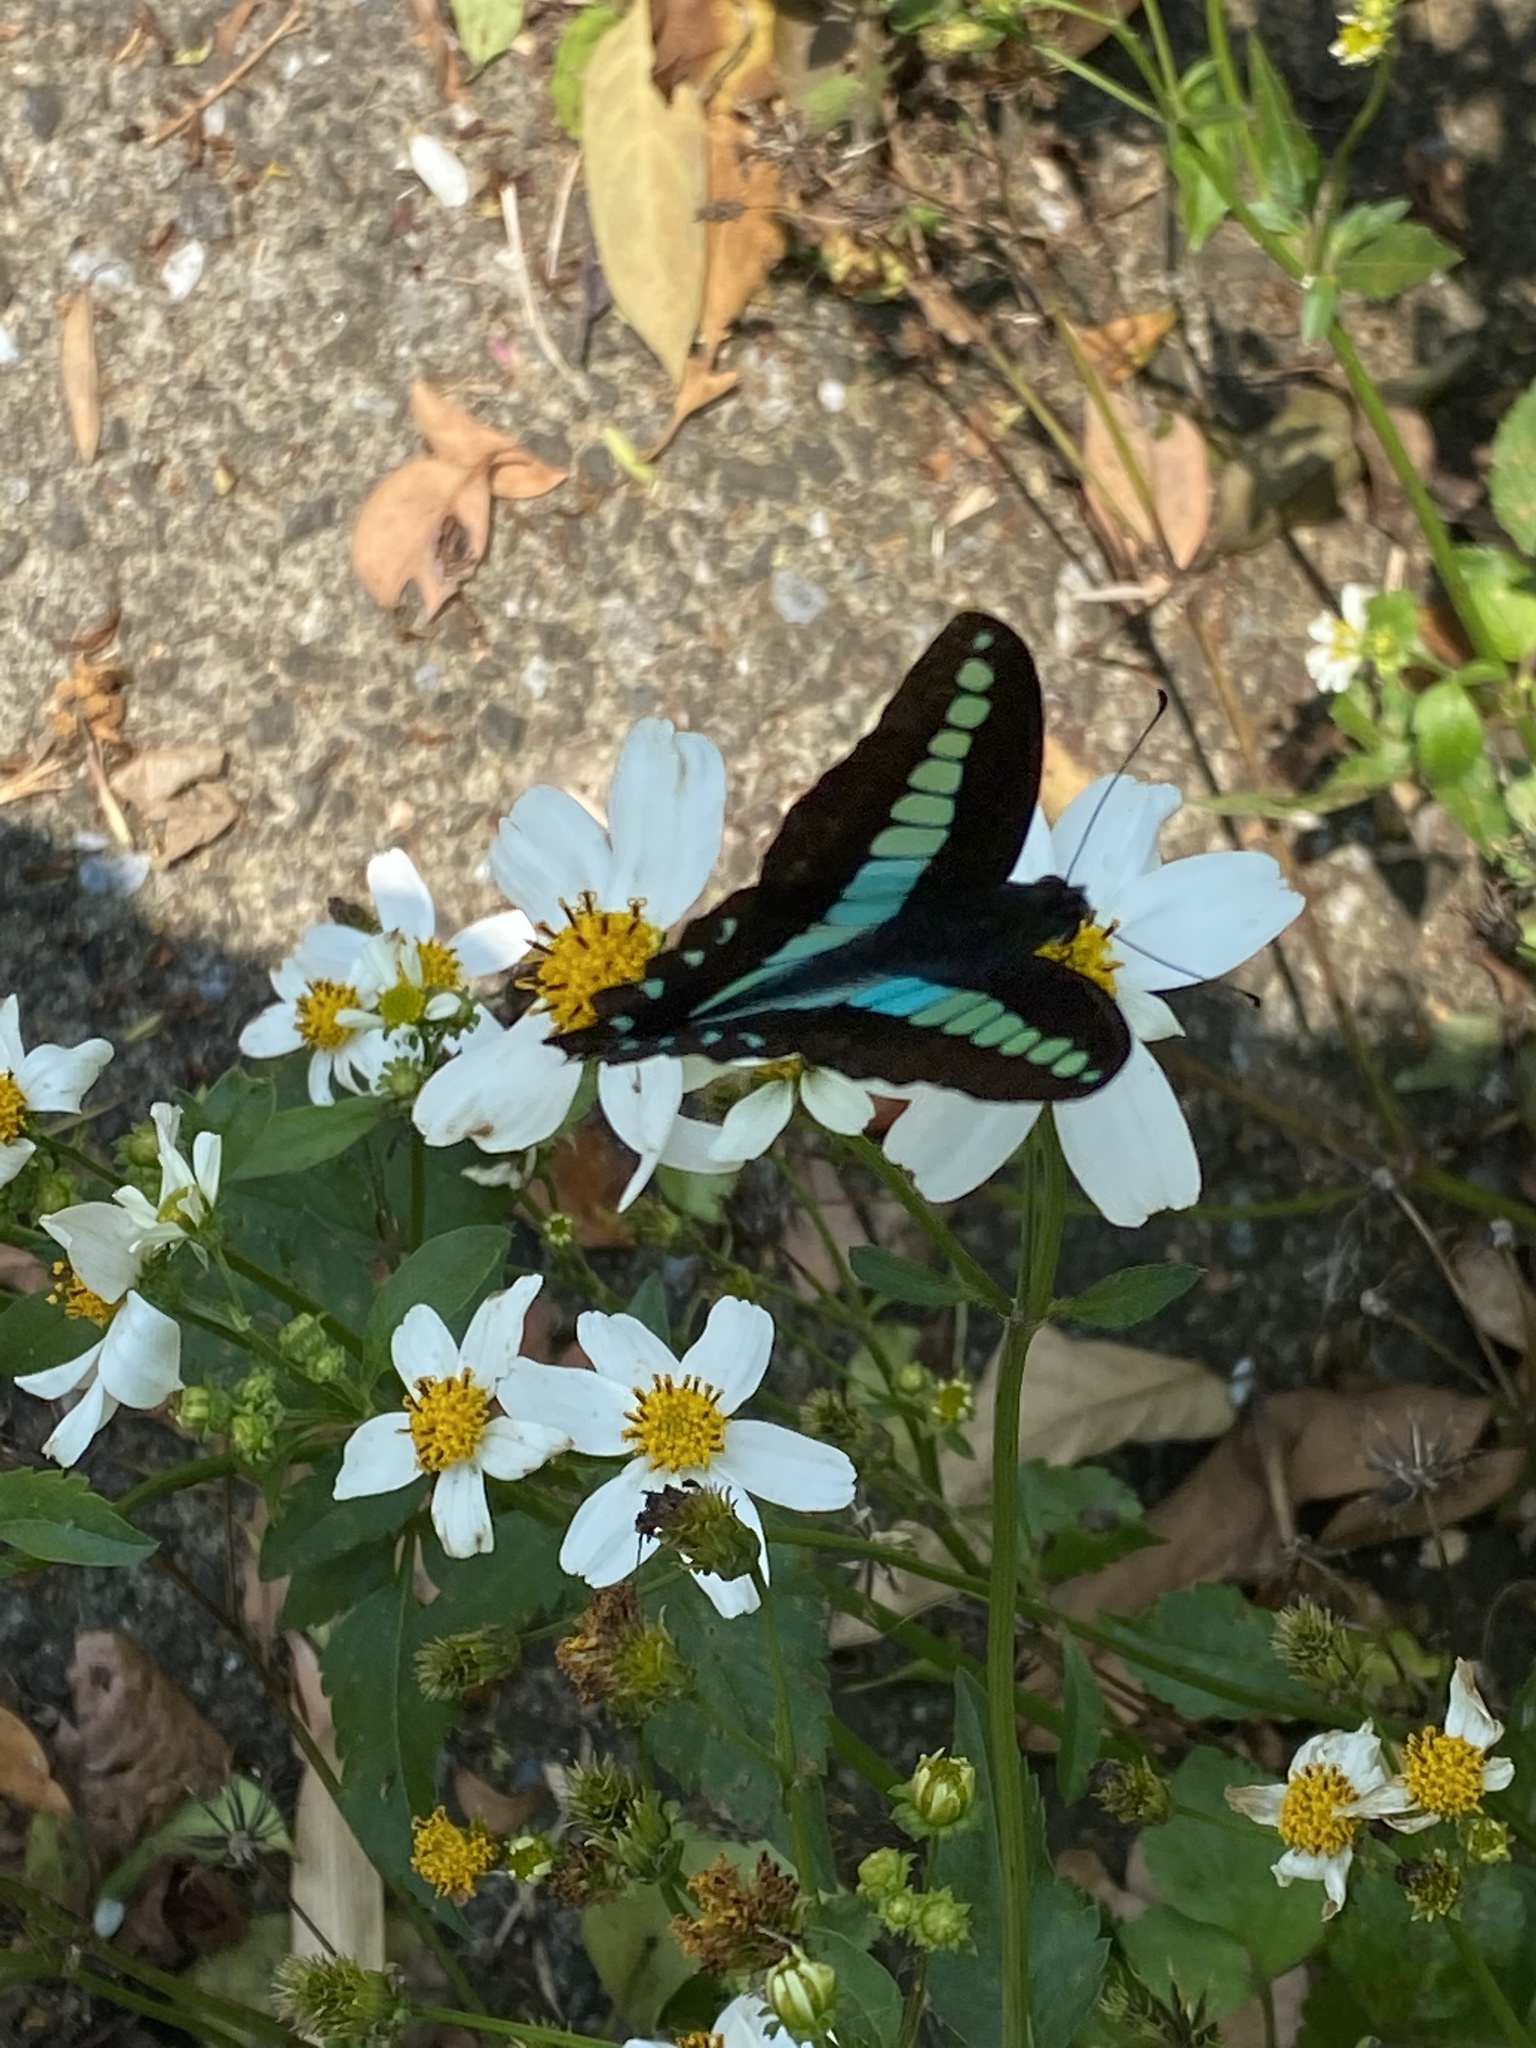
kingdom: Fungi
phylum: Ascomycota
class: Sordariomycetes
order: Microascales
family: Microascaceae
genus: Graphium
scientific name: Graphium sarpedon
